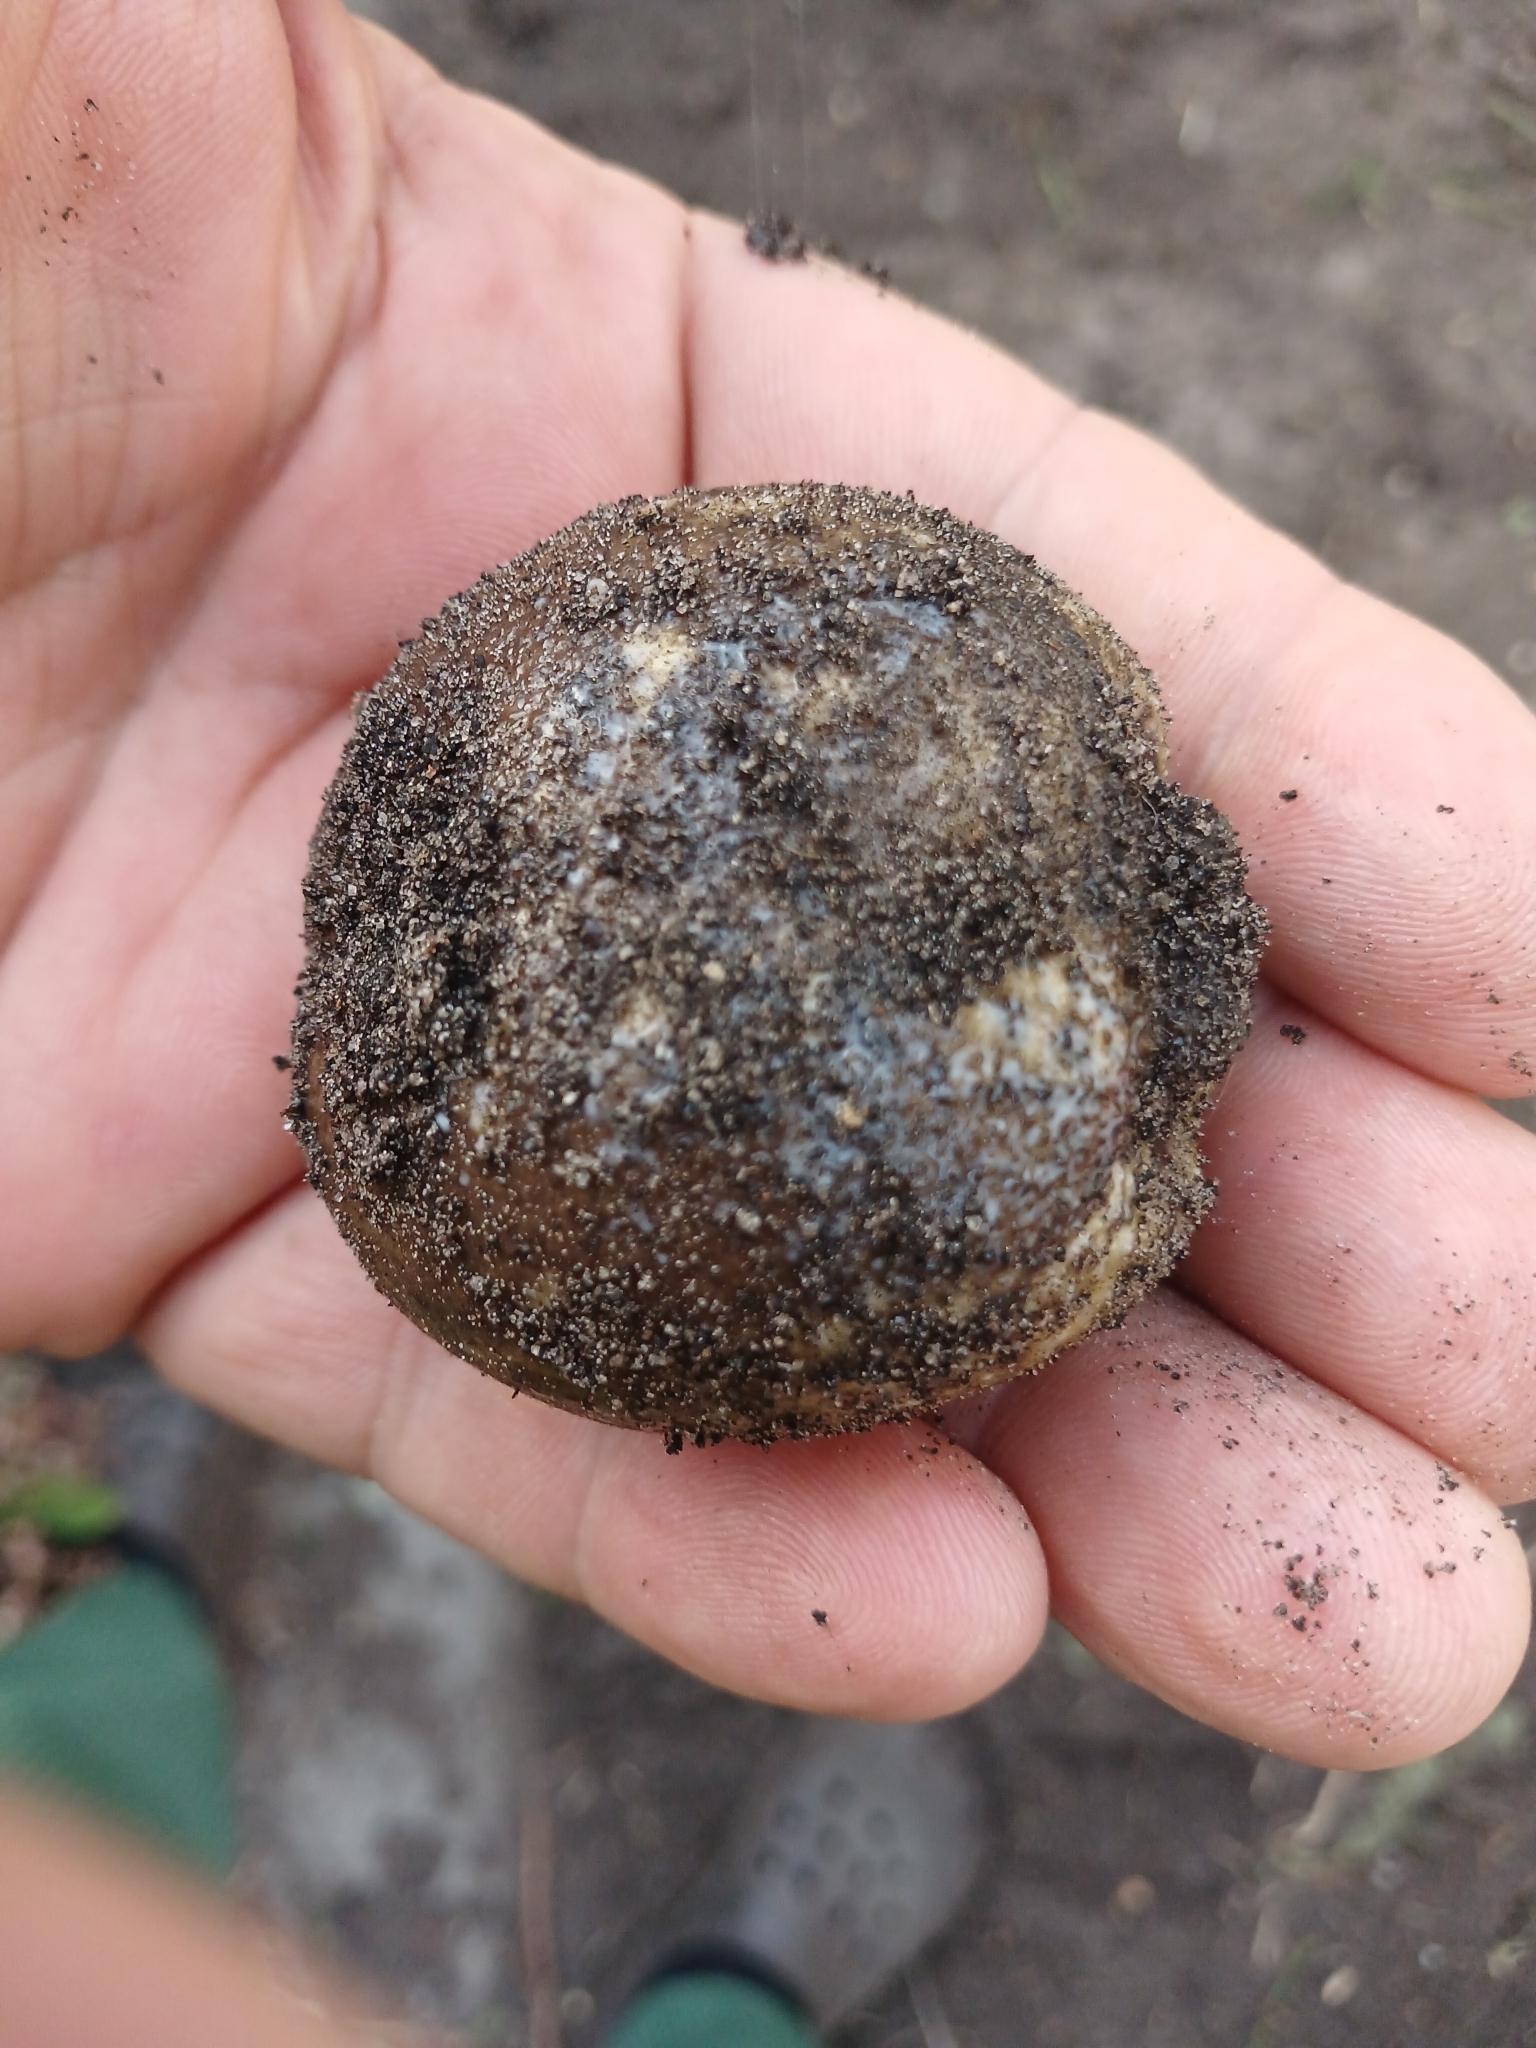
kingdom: Animalia
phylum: Chordata
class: Amphibia
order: Anura
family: Brevicipitidae
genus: Breviceps
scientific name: Breviceps gibbosus
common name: Cape rain frog
